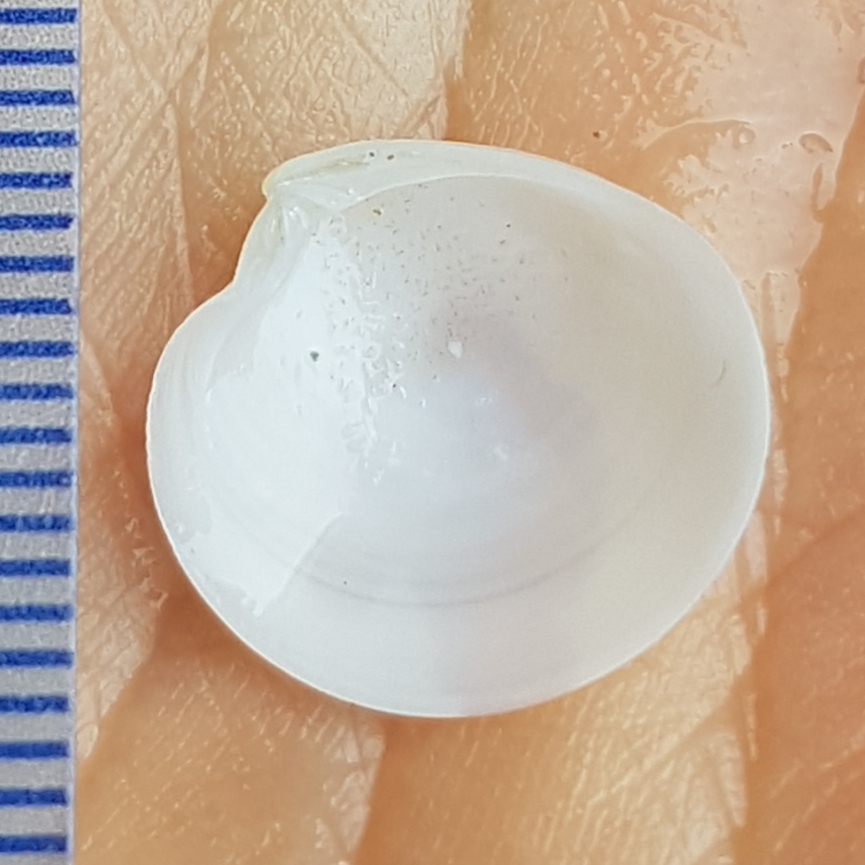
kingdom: Animalia
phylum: Mollusca
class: Bivalvia
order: Venerida
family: Veneridae
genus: Dosinia
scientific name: Dosinia lupinus
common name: Smooth artemis
